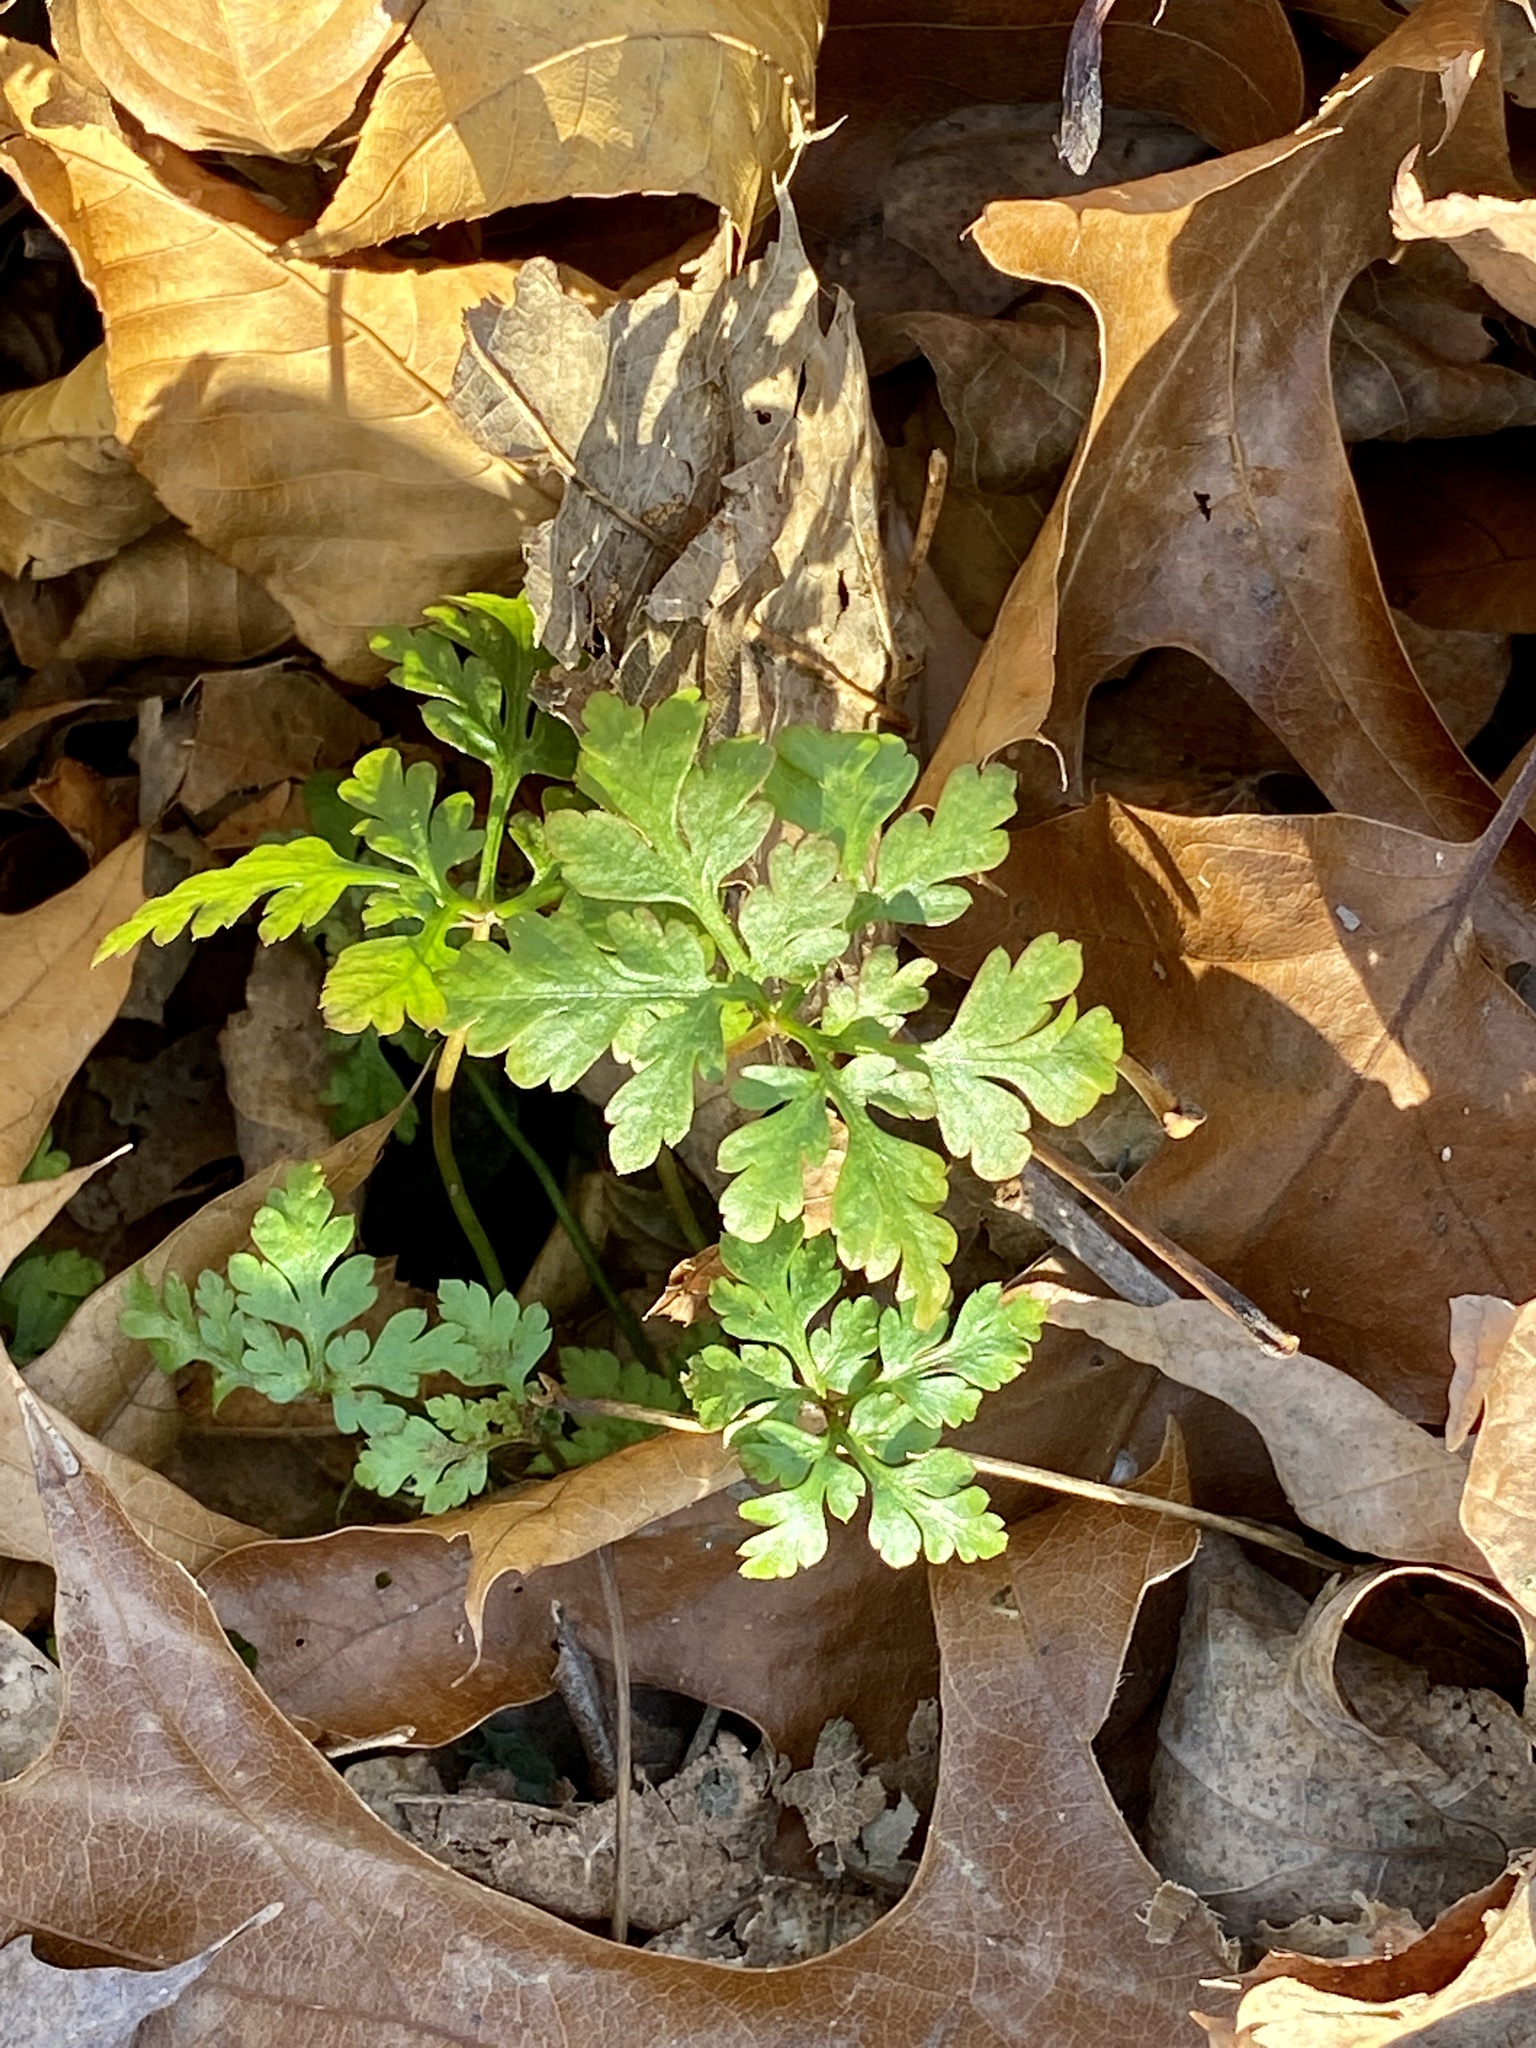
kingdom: Plantae
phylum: Tracheophyta
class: Magnoliopsida
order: Geraniales
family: Geraniaceae
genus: Geranium
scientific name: Geranium robertianum
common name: Herb-robert
